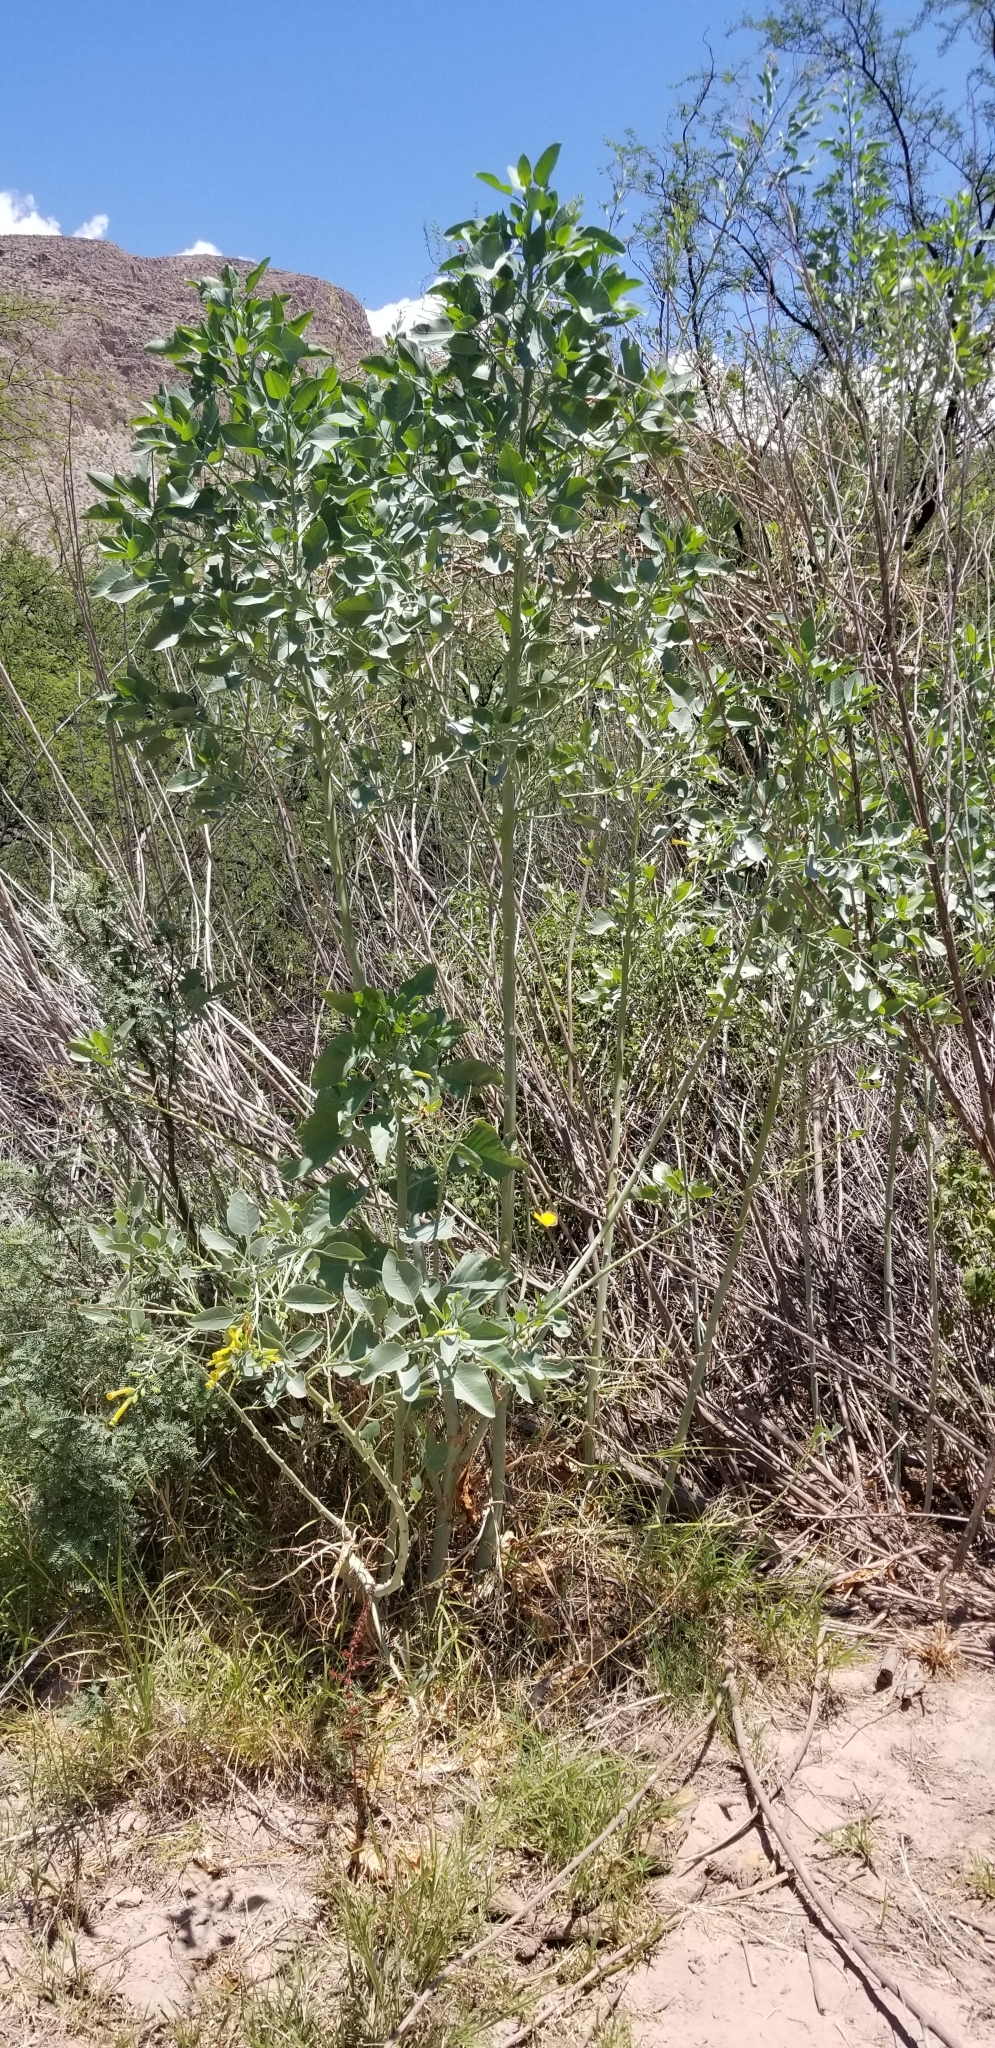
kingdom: Plantae
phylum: Tracheophyta
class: Magnoliopsida
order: Solanales
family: Solanaceae
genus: Nicotiana
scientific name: Nicotiana glauca
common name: Tree tobacco
